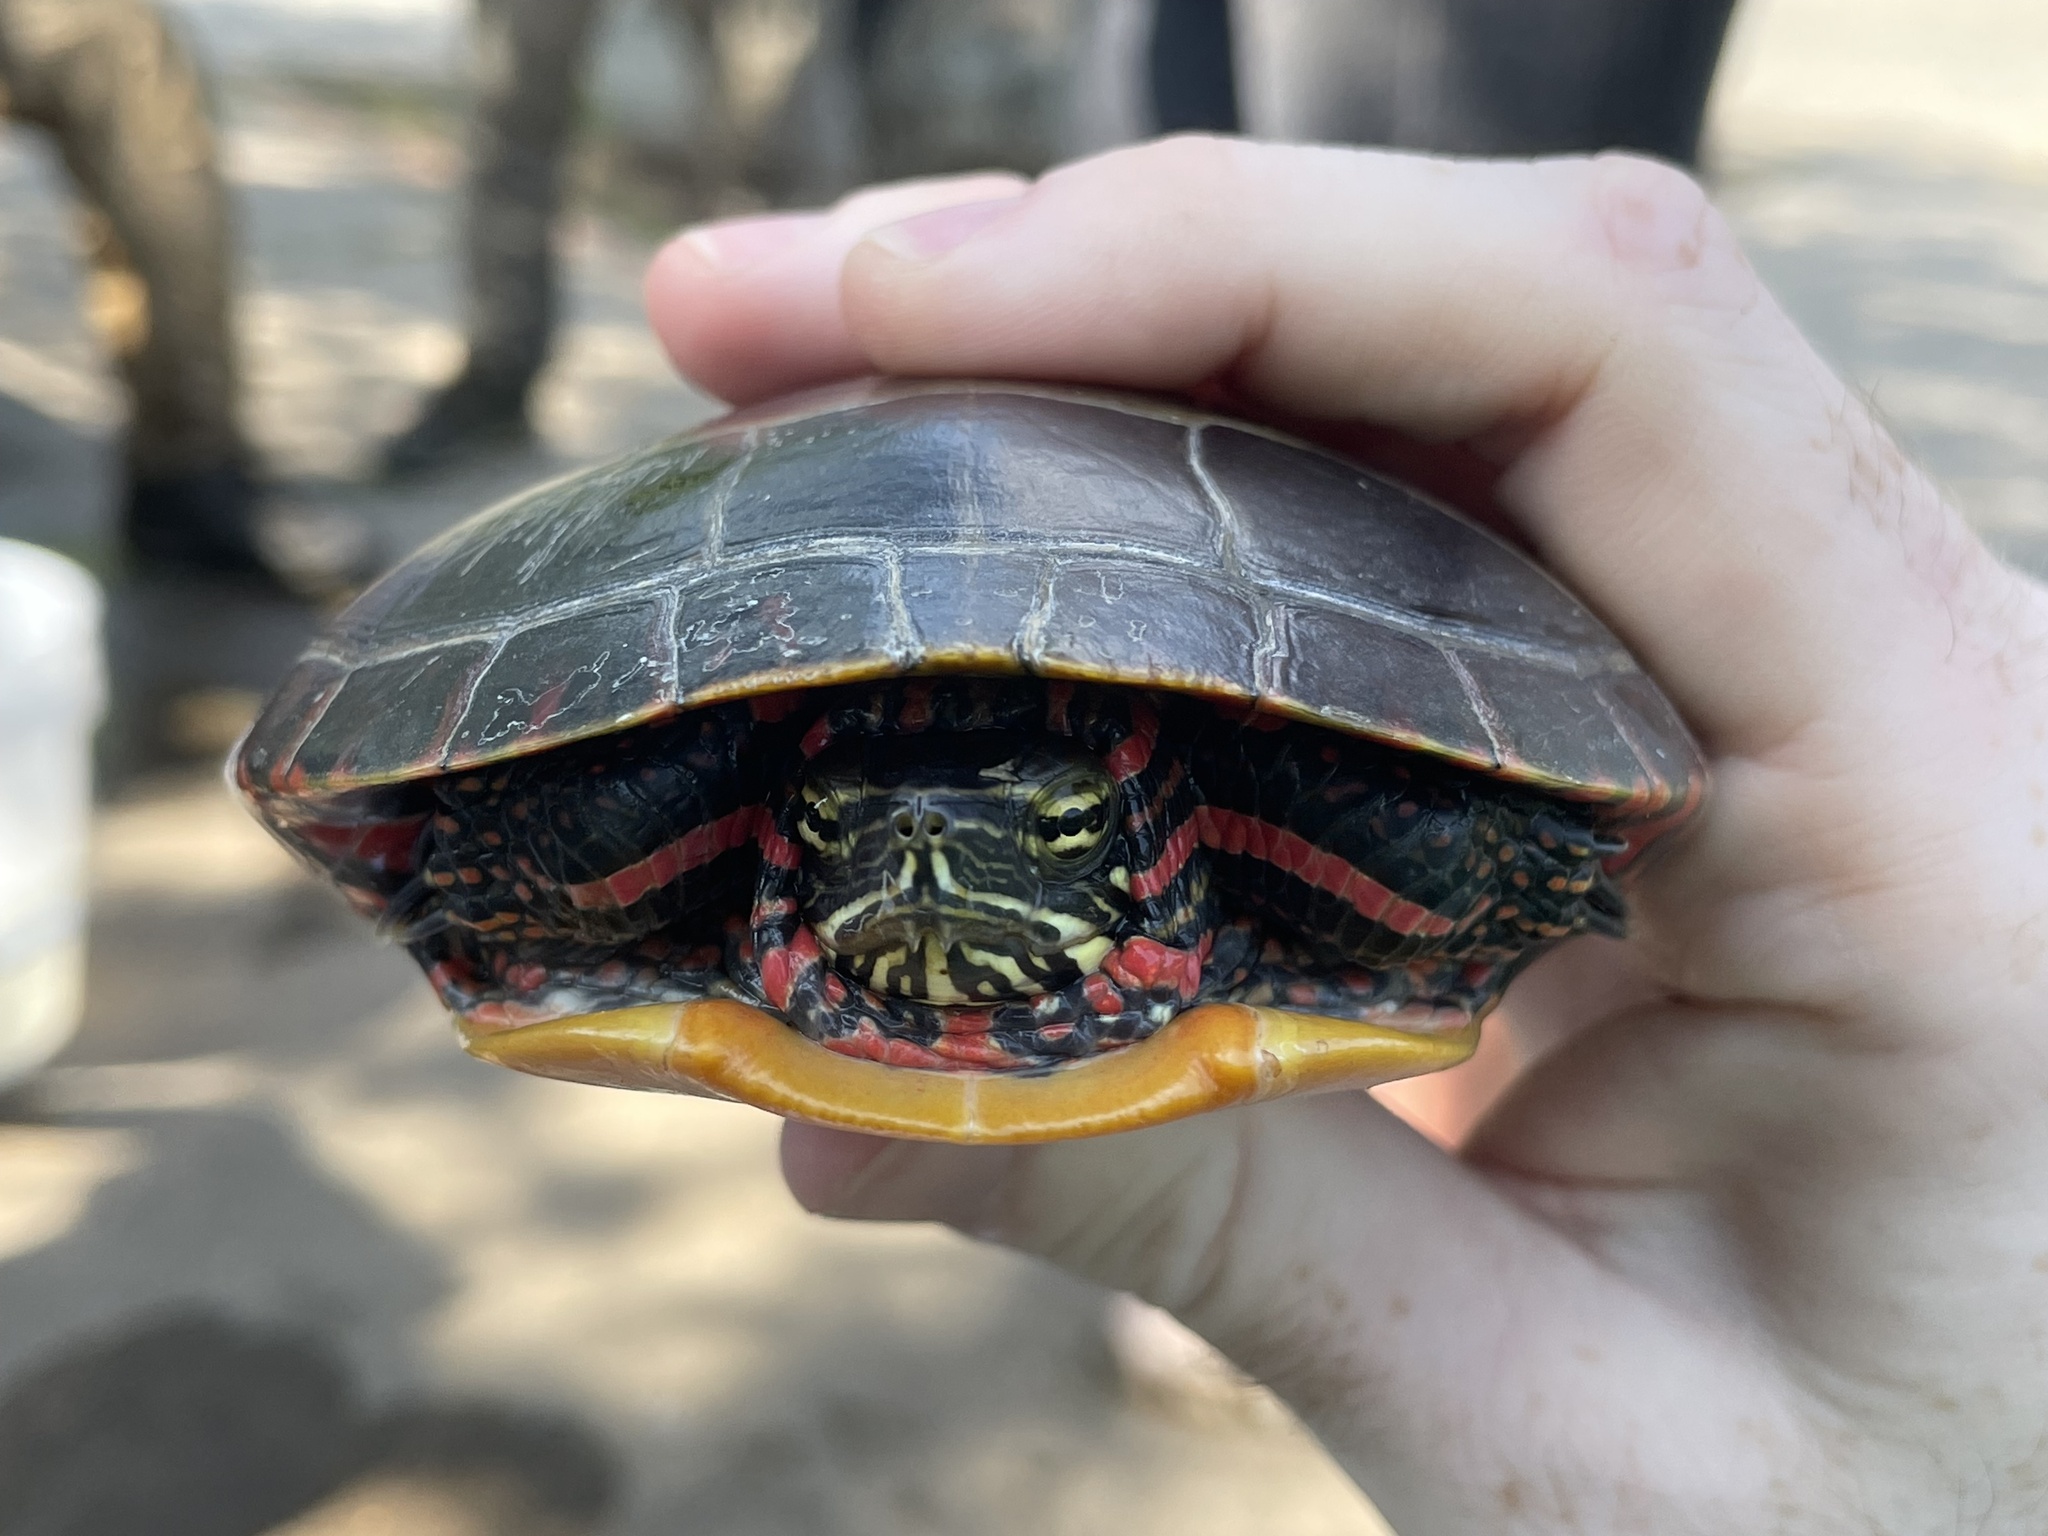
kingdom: Animalia
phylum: Chordata
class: Testudines
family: Emydidae
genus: Chrysemys
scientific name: Chrysemys picta
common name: Painted turtle
